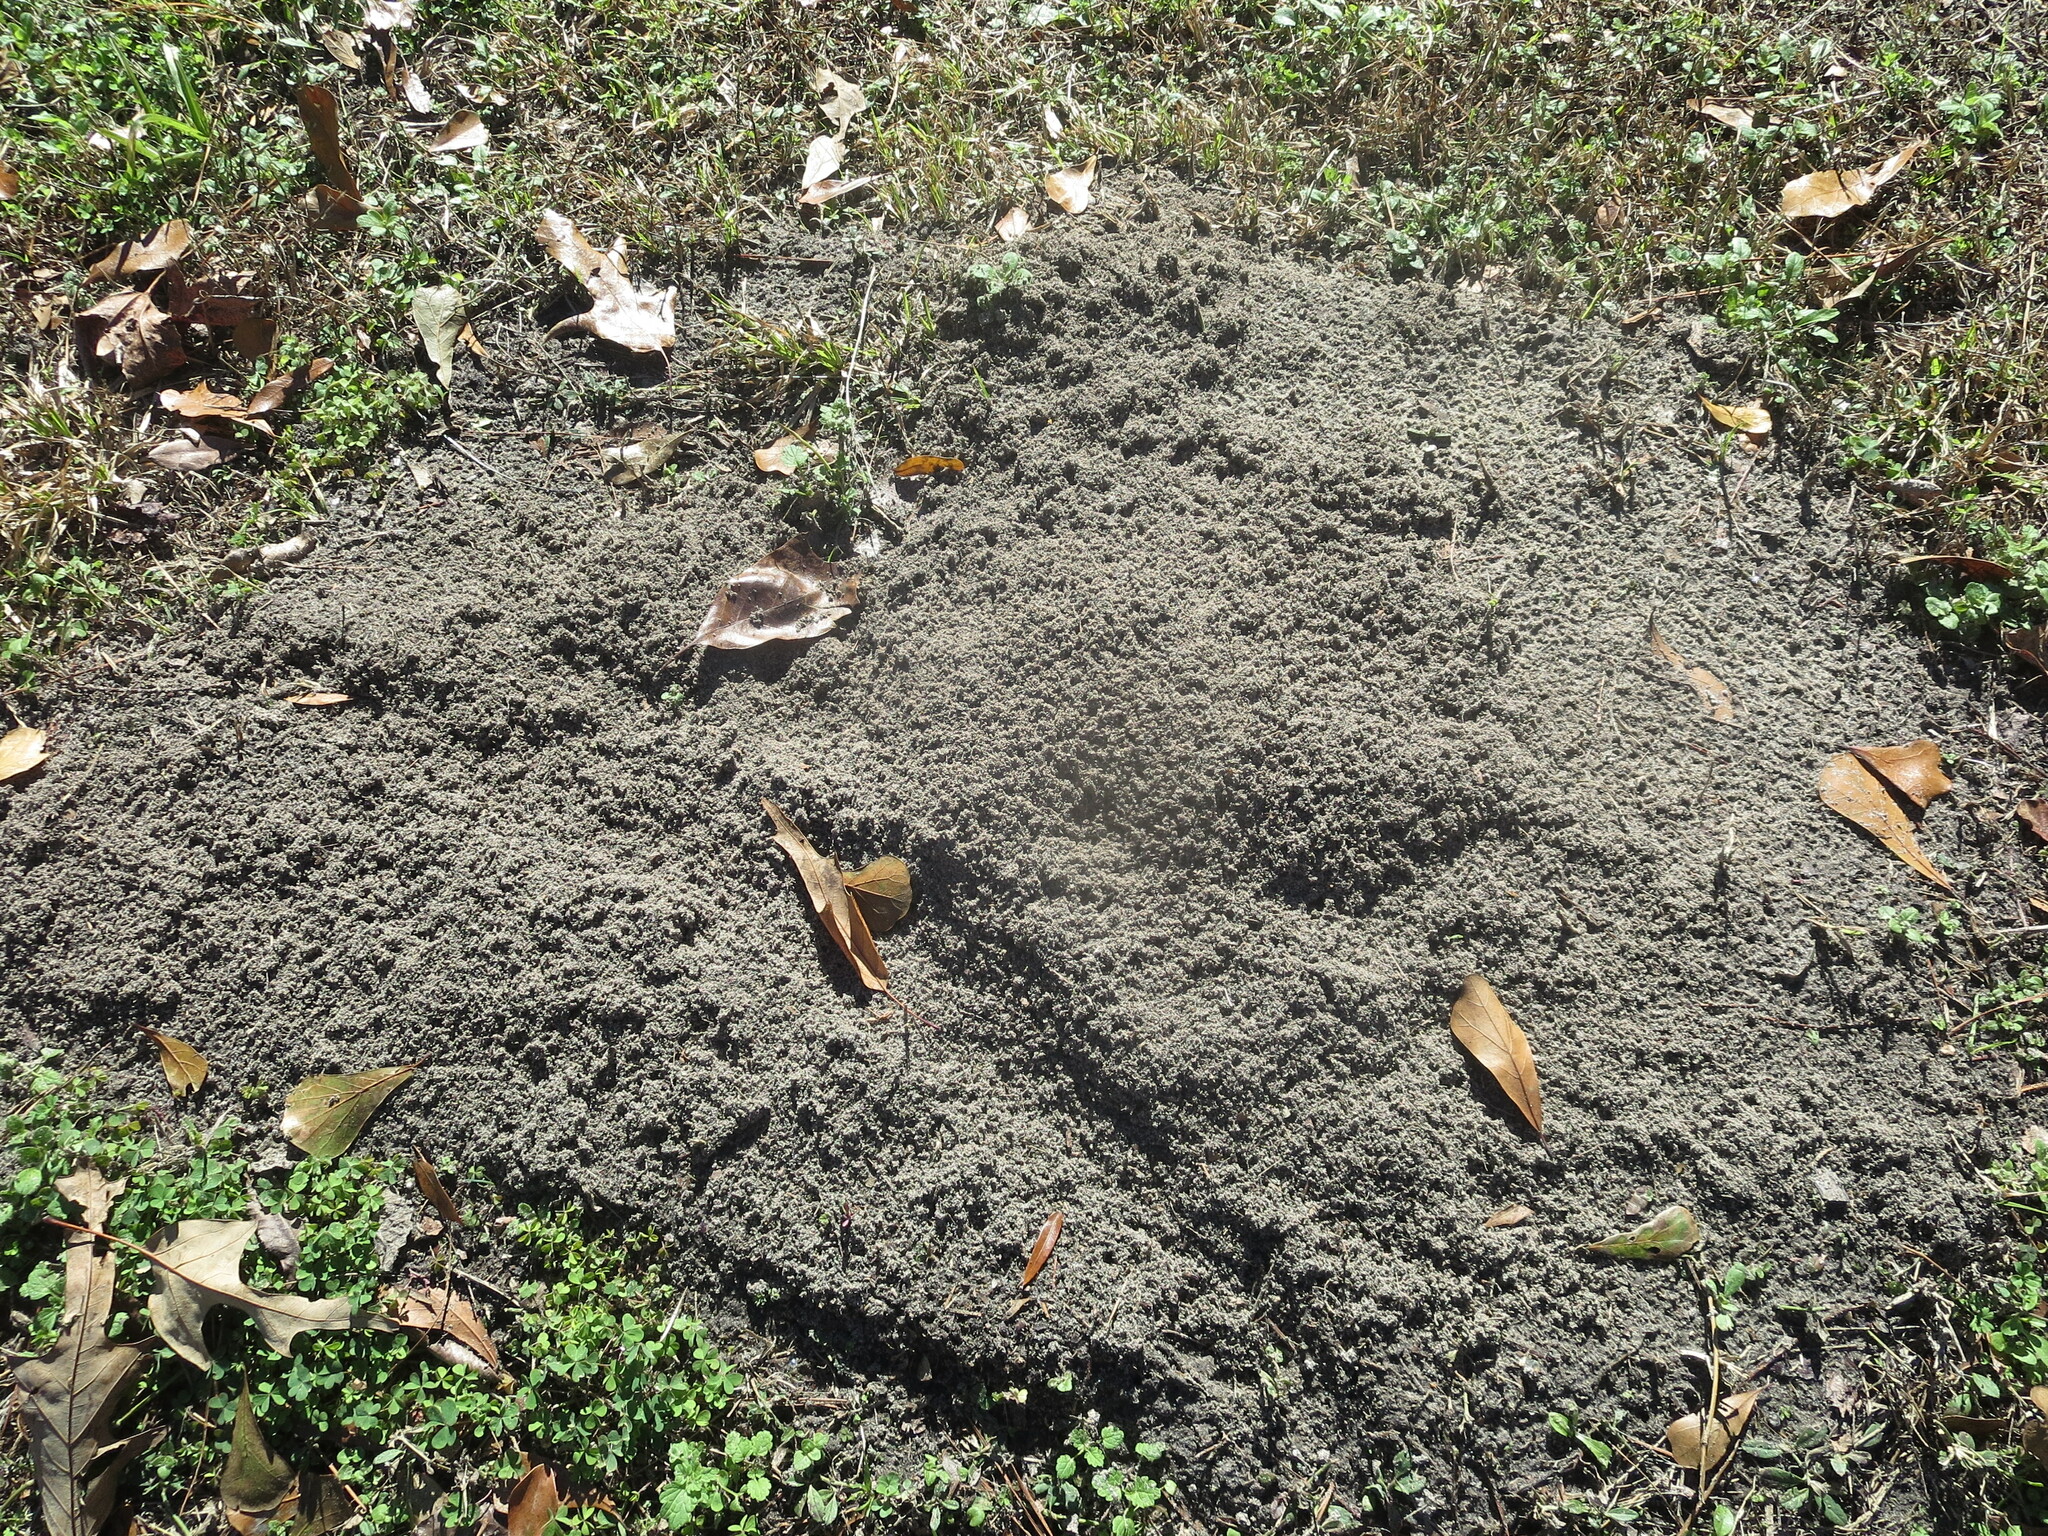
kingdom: Animalia
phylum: Arthropoda
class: Insecta
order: Hymenoptera
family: Formicidae
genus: Solenopsis
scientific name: Solenopsis invicta
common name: Red imported fire ant
